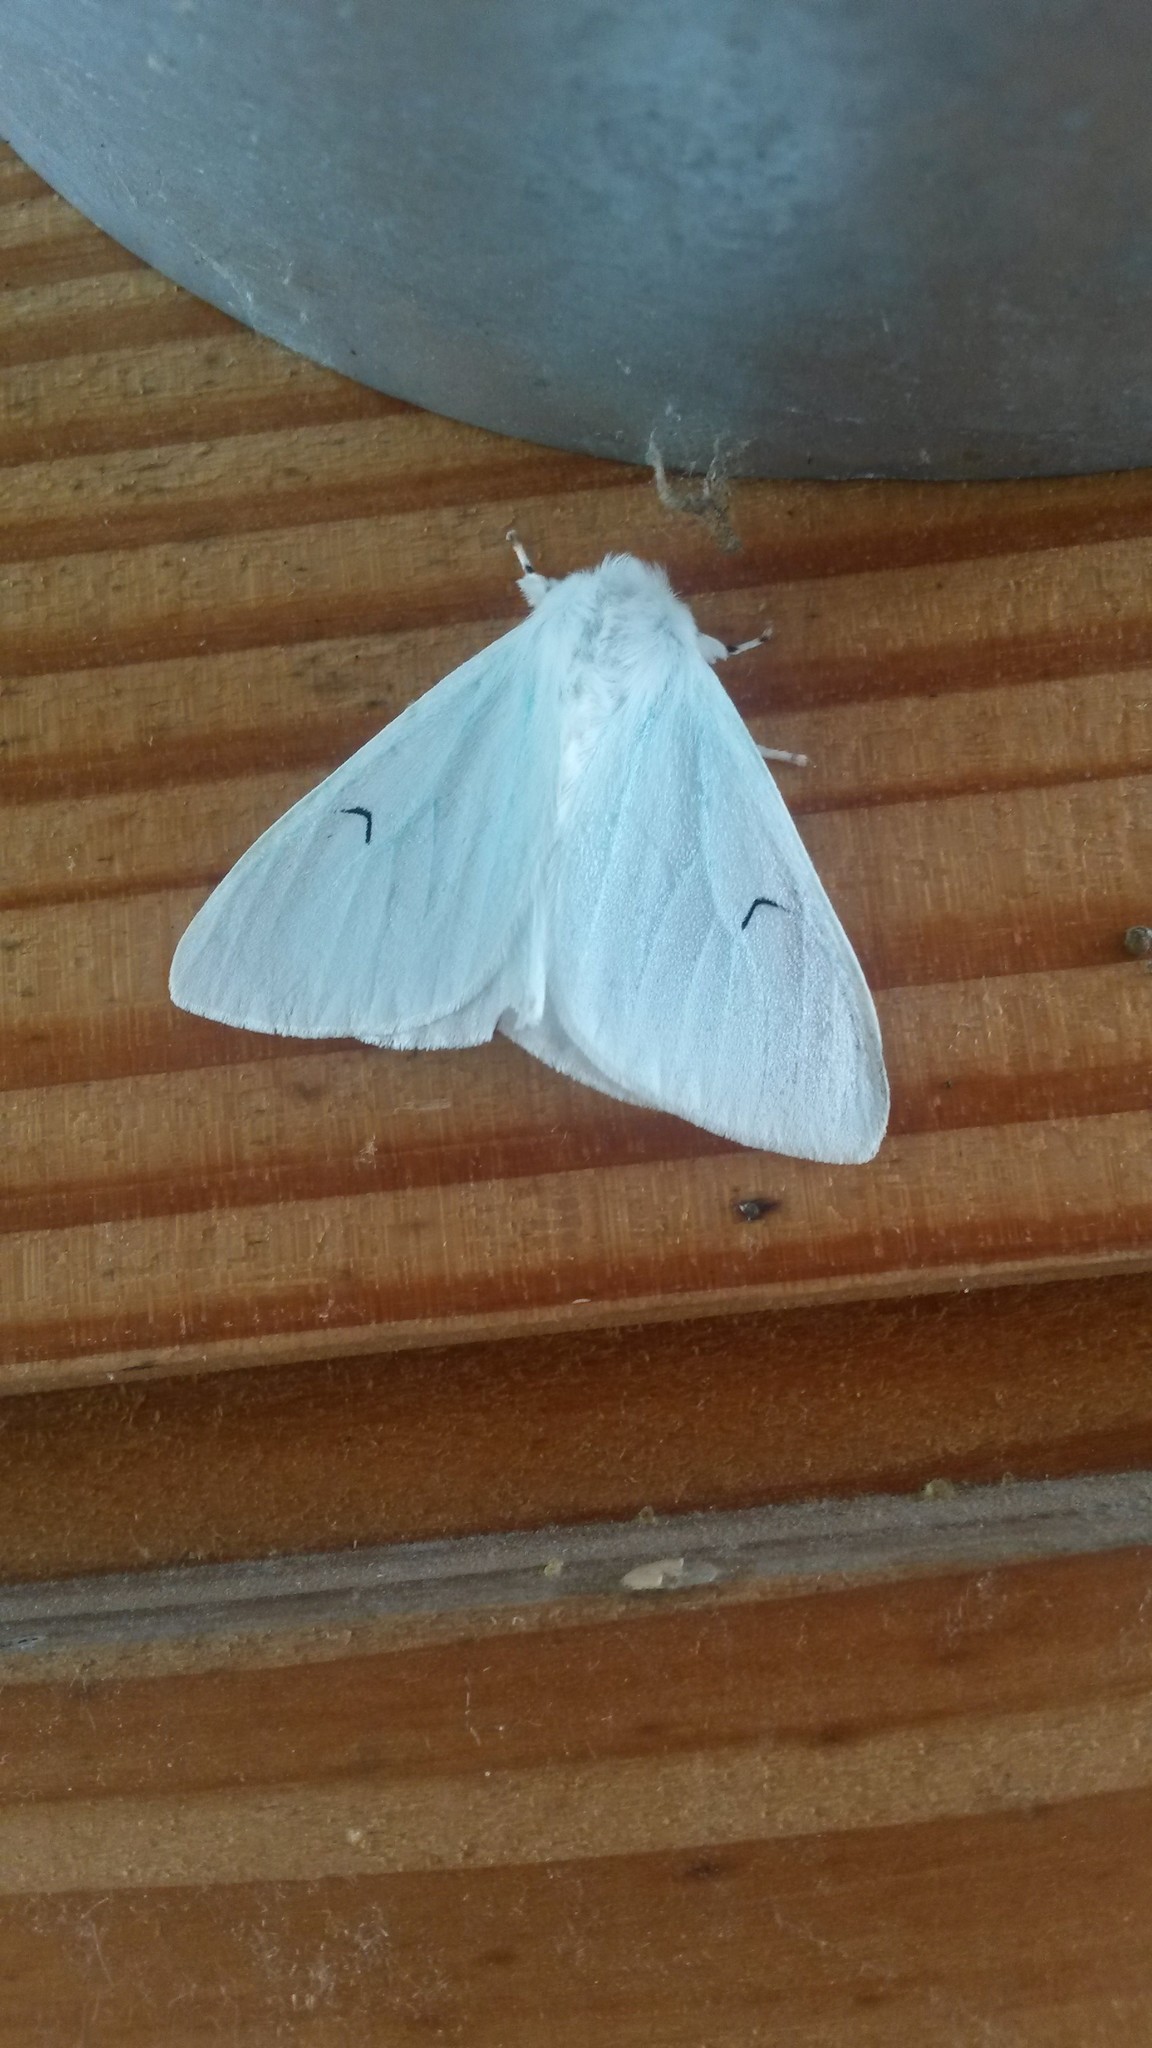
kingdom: Animalia
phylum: Arthropoda
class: Insecta
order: Lepidoptera
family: Erebidae
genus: Arctornis
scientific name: Arctornis l-nigrum
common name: Black v moth
